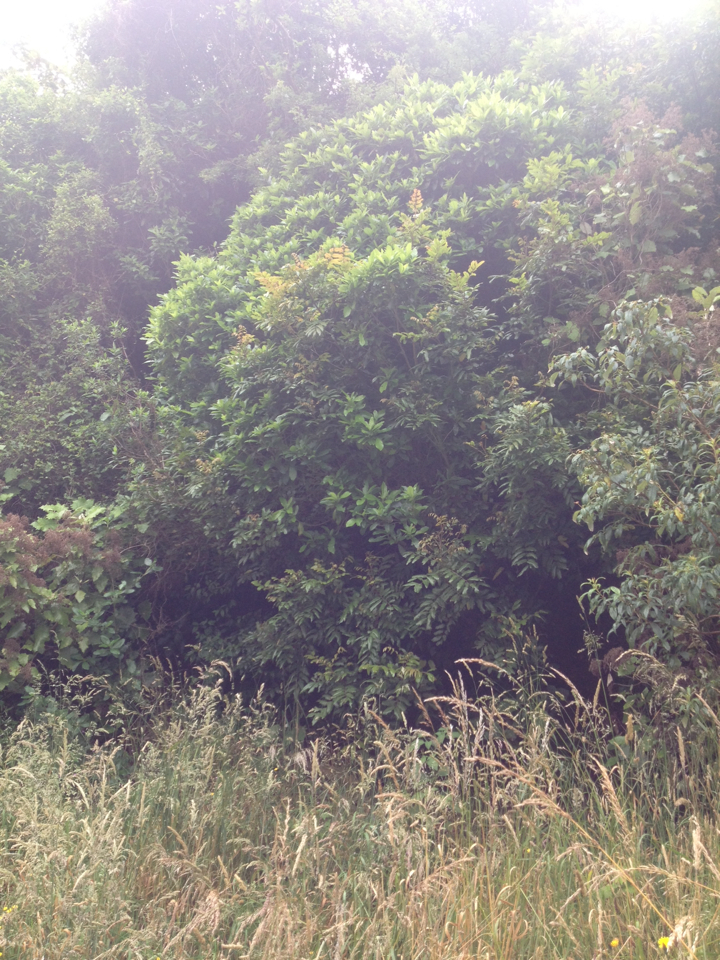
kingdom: Plantae
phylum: Tracheophyta
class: Magnoliopsida
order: Sapindales
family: Sapindaceae
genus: Alectryon
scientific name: Alectryon excelsus
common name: Three kings titoki
